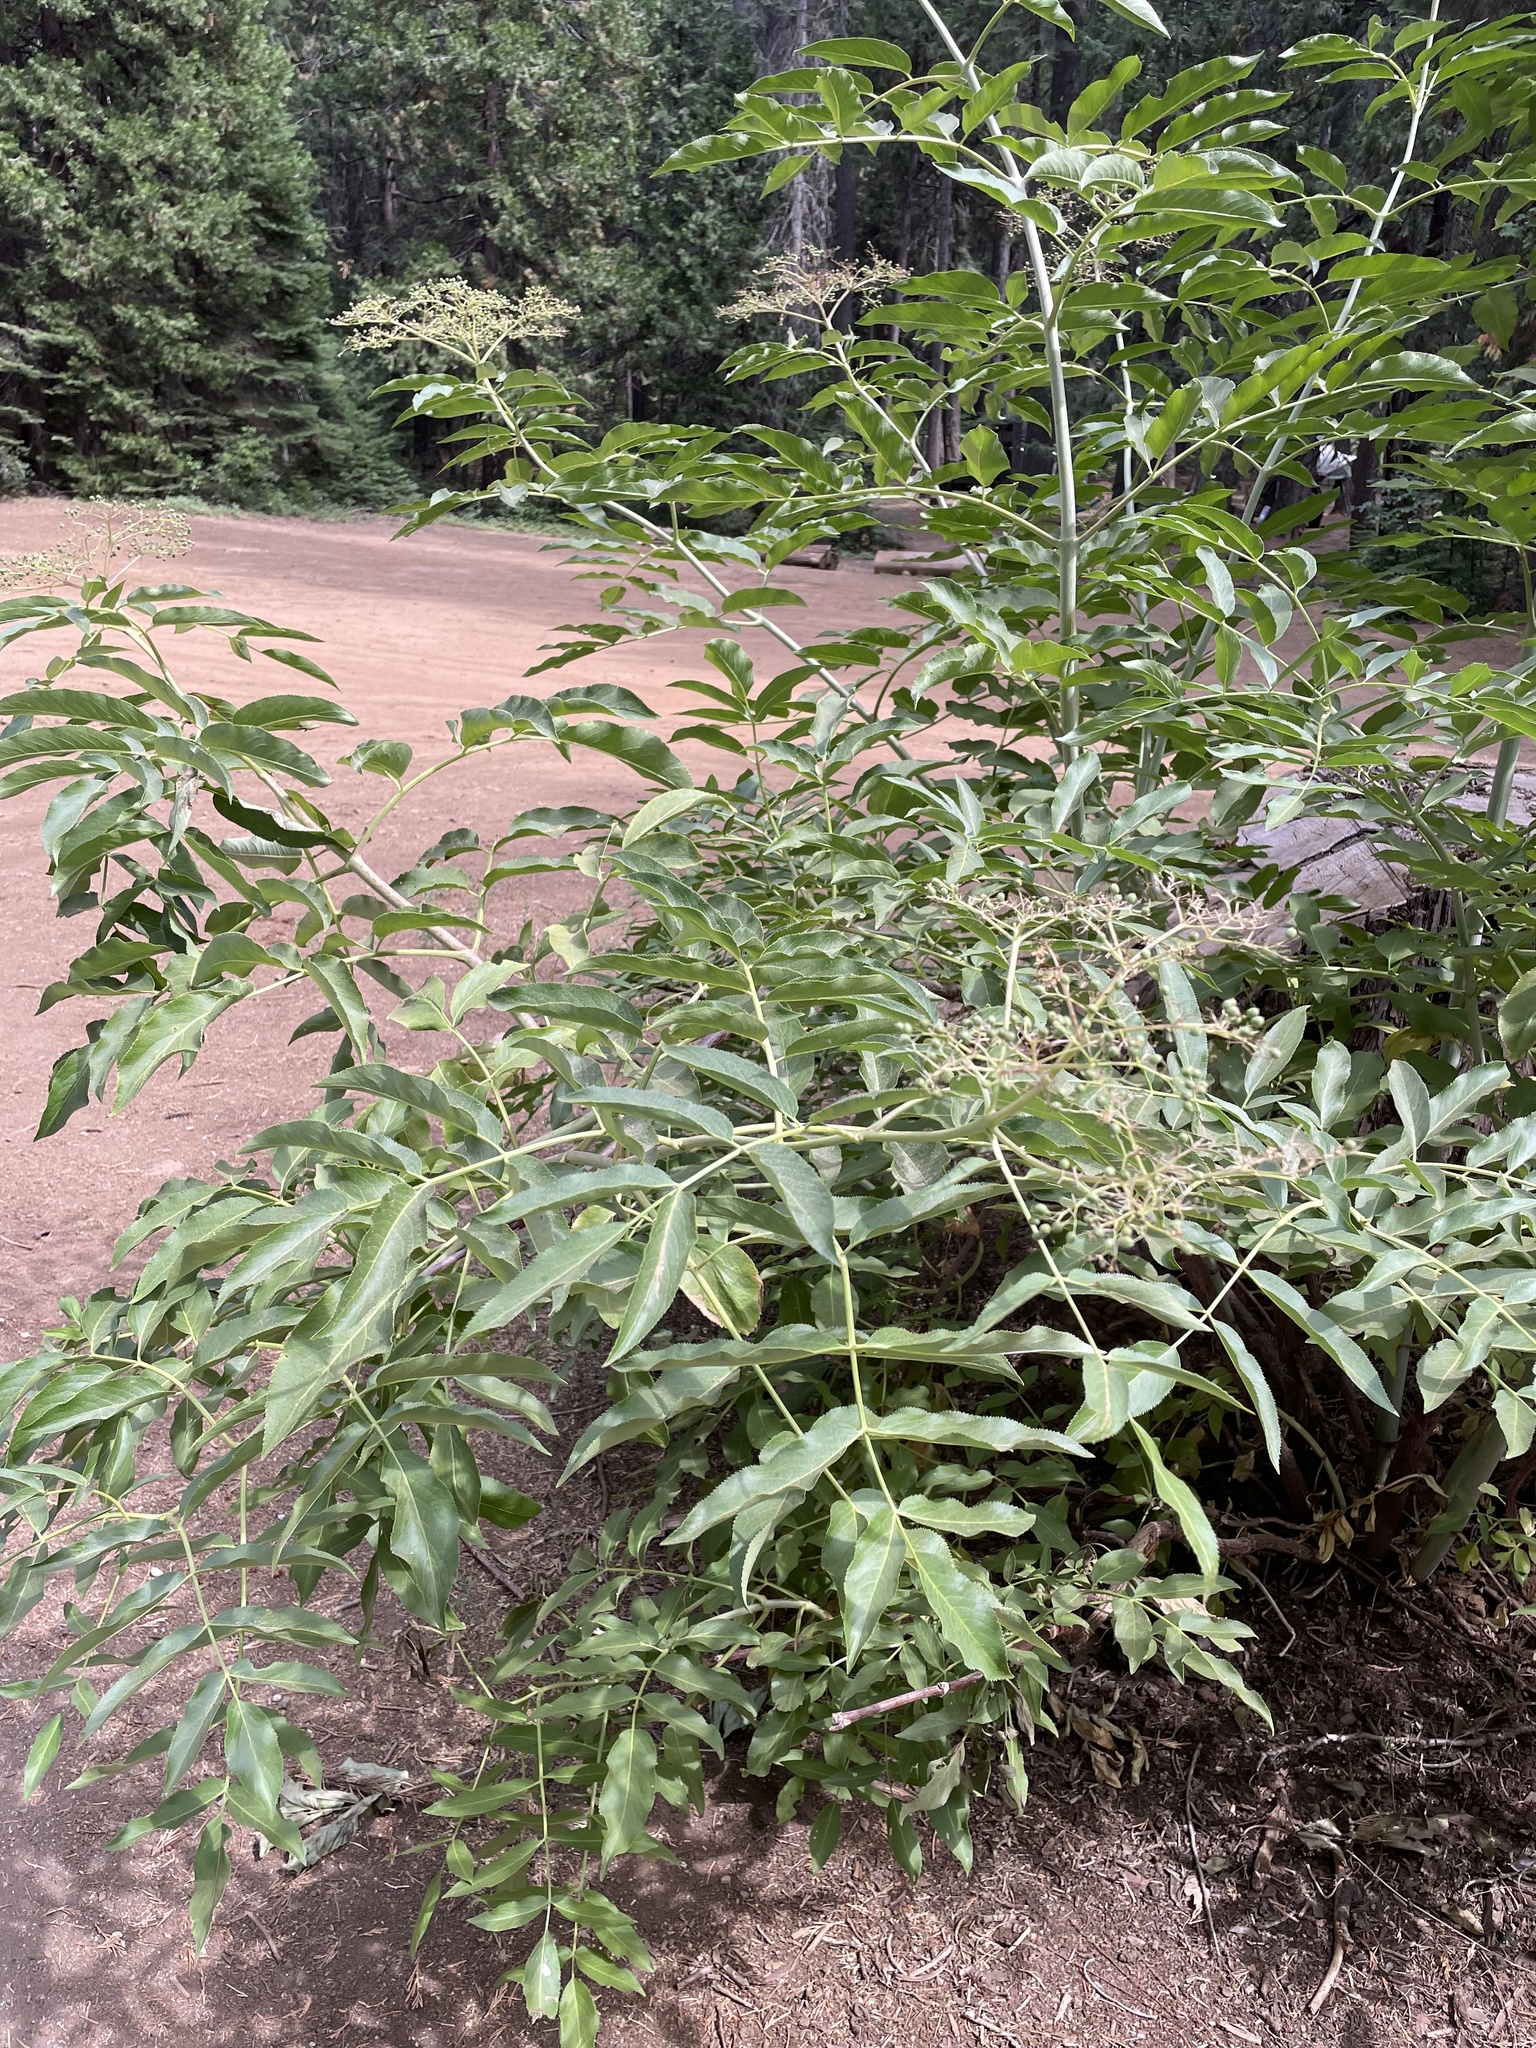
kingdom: Plantae
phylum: Tracheophyta
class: Magnoliopsida
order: Dipsacales
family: Viburnaceae
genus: Sambucus
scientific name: Sambucus cerulea
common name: Blue elder
